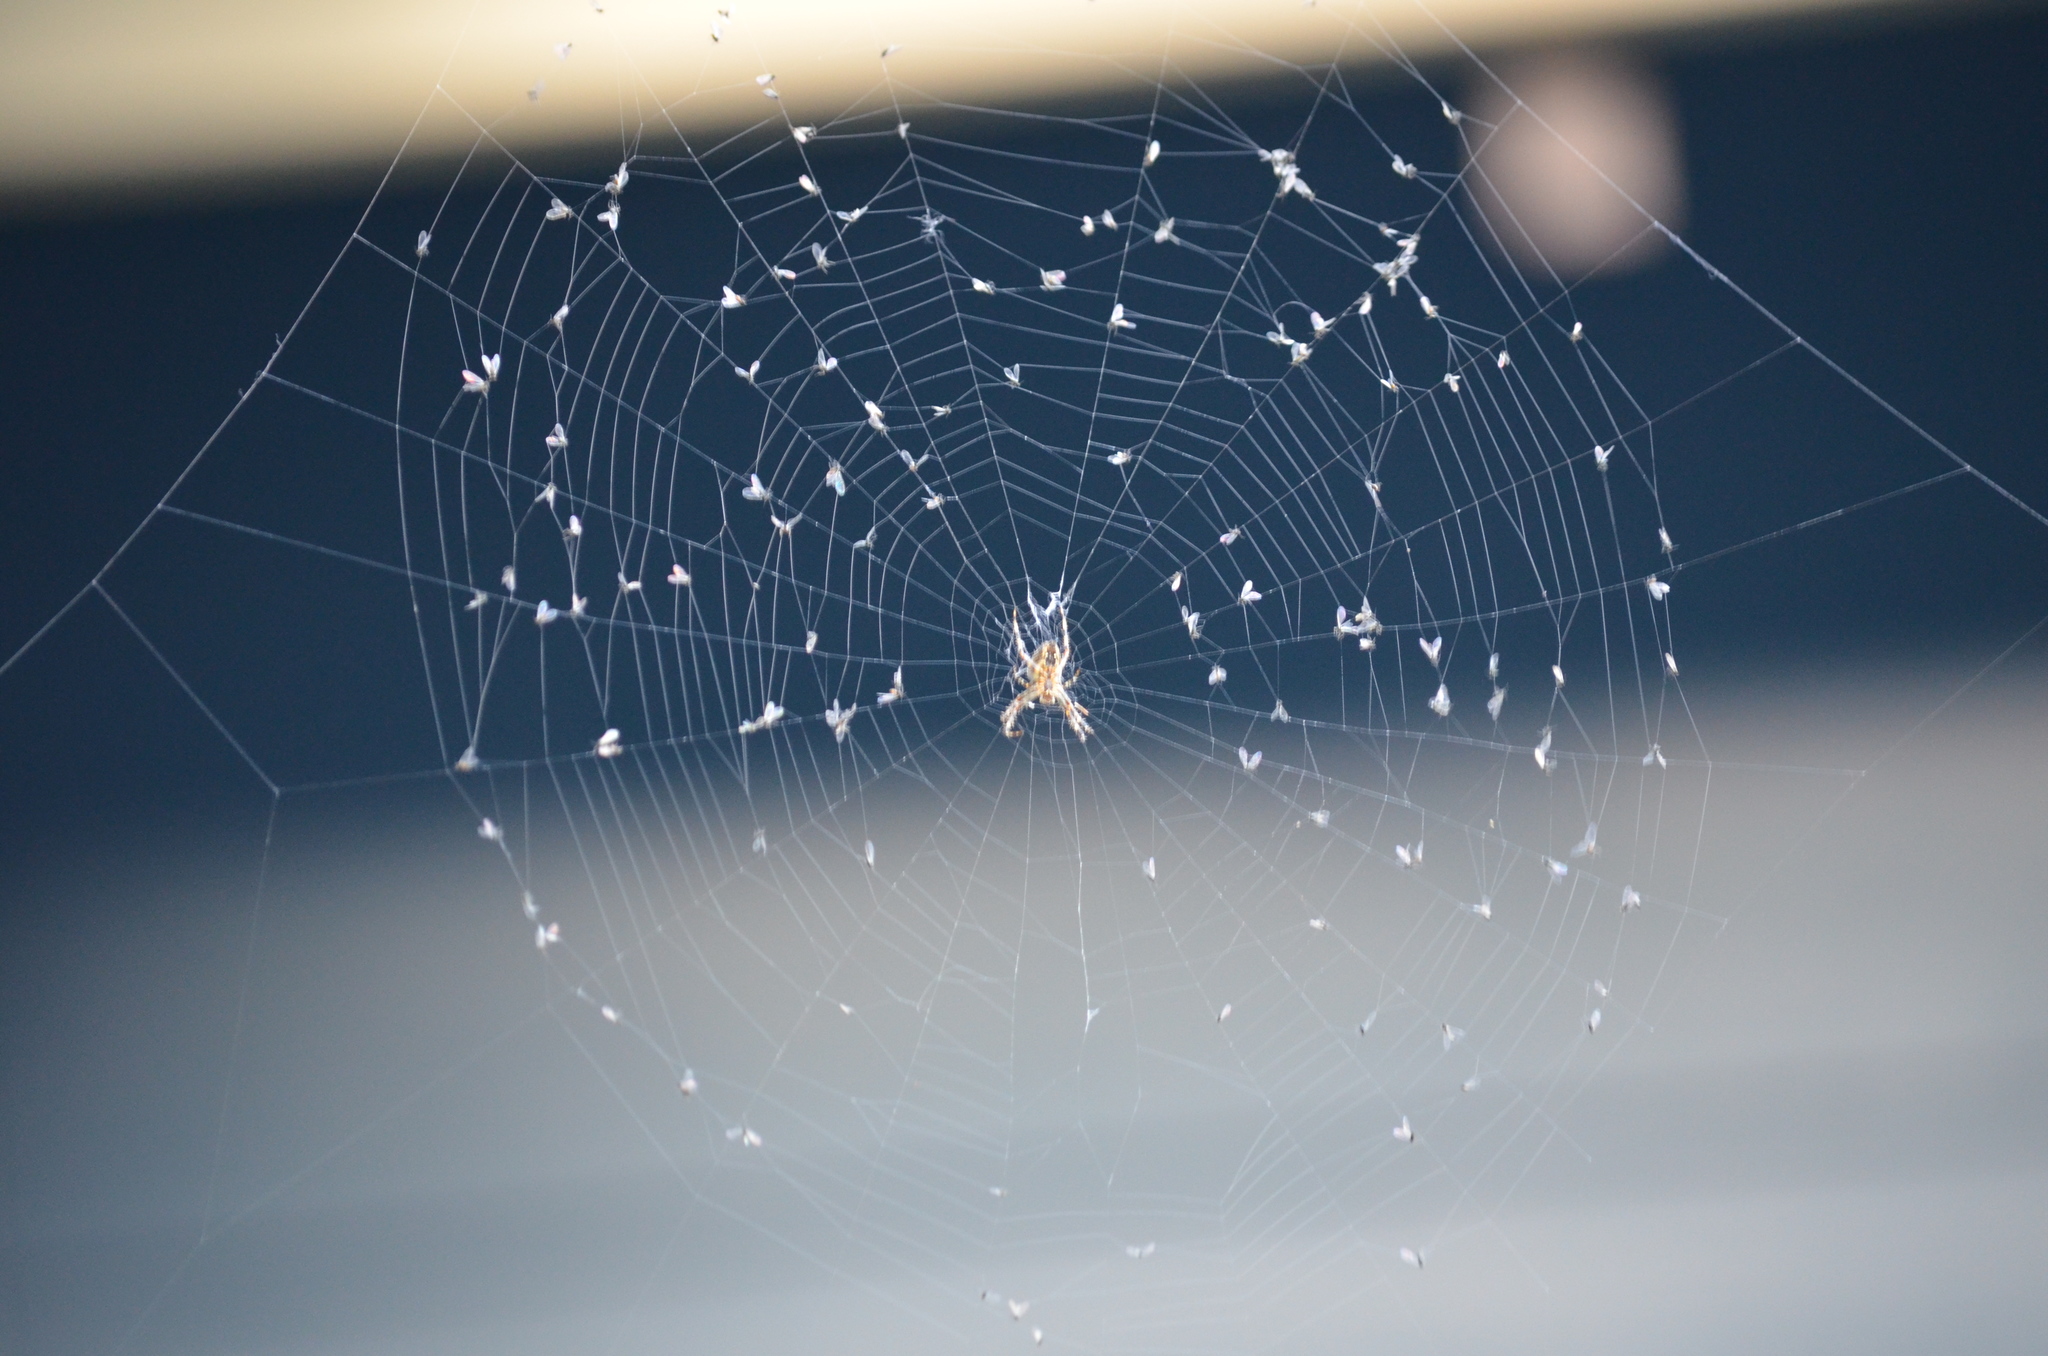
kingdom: Animalia
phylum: Arthropoda
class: Arachnida
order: Araneae
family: Araneidae
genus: Araneus
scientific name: Araneus diadematus
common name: Cross orbweaver
